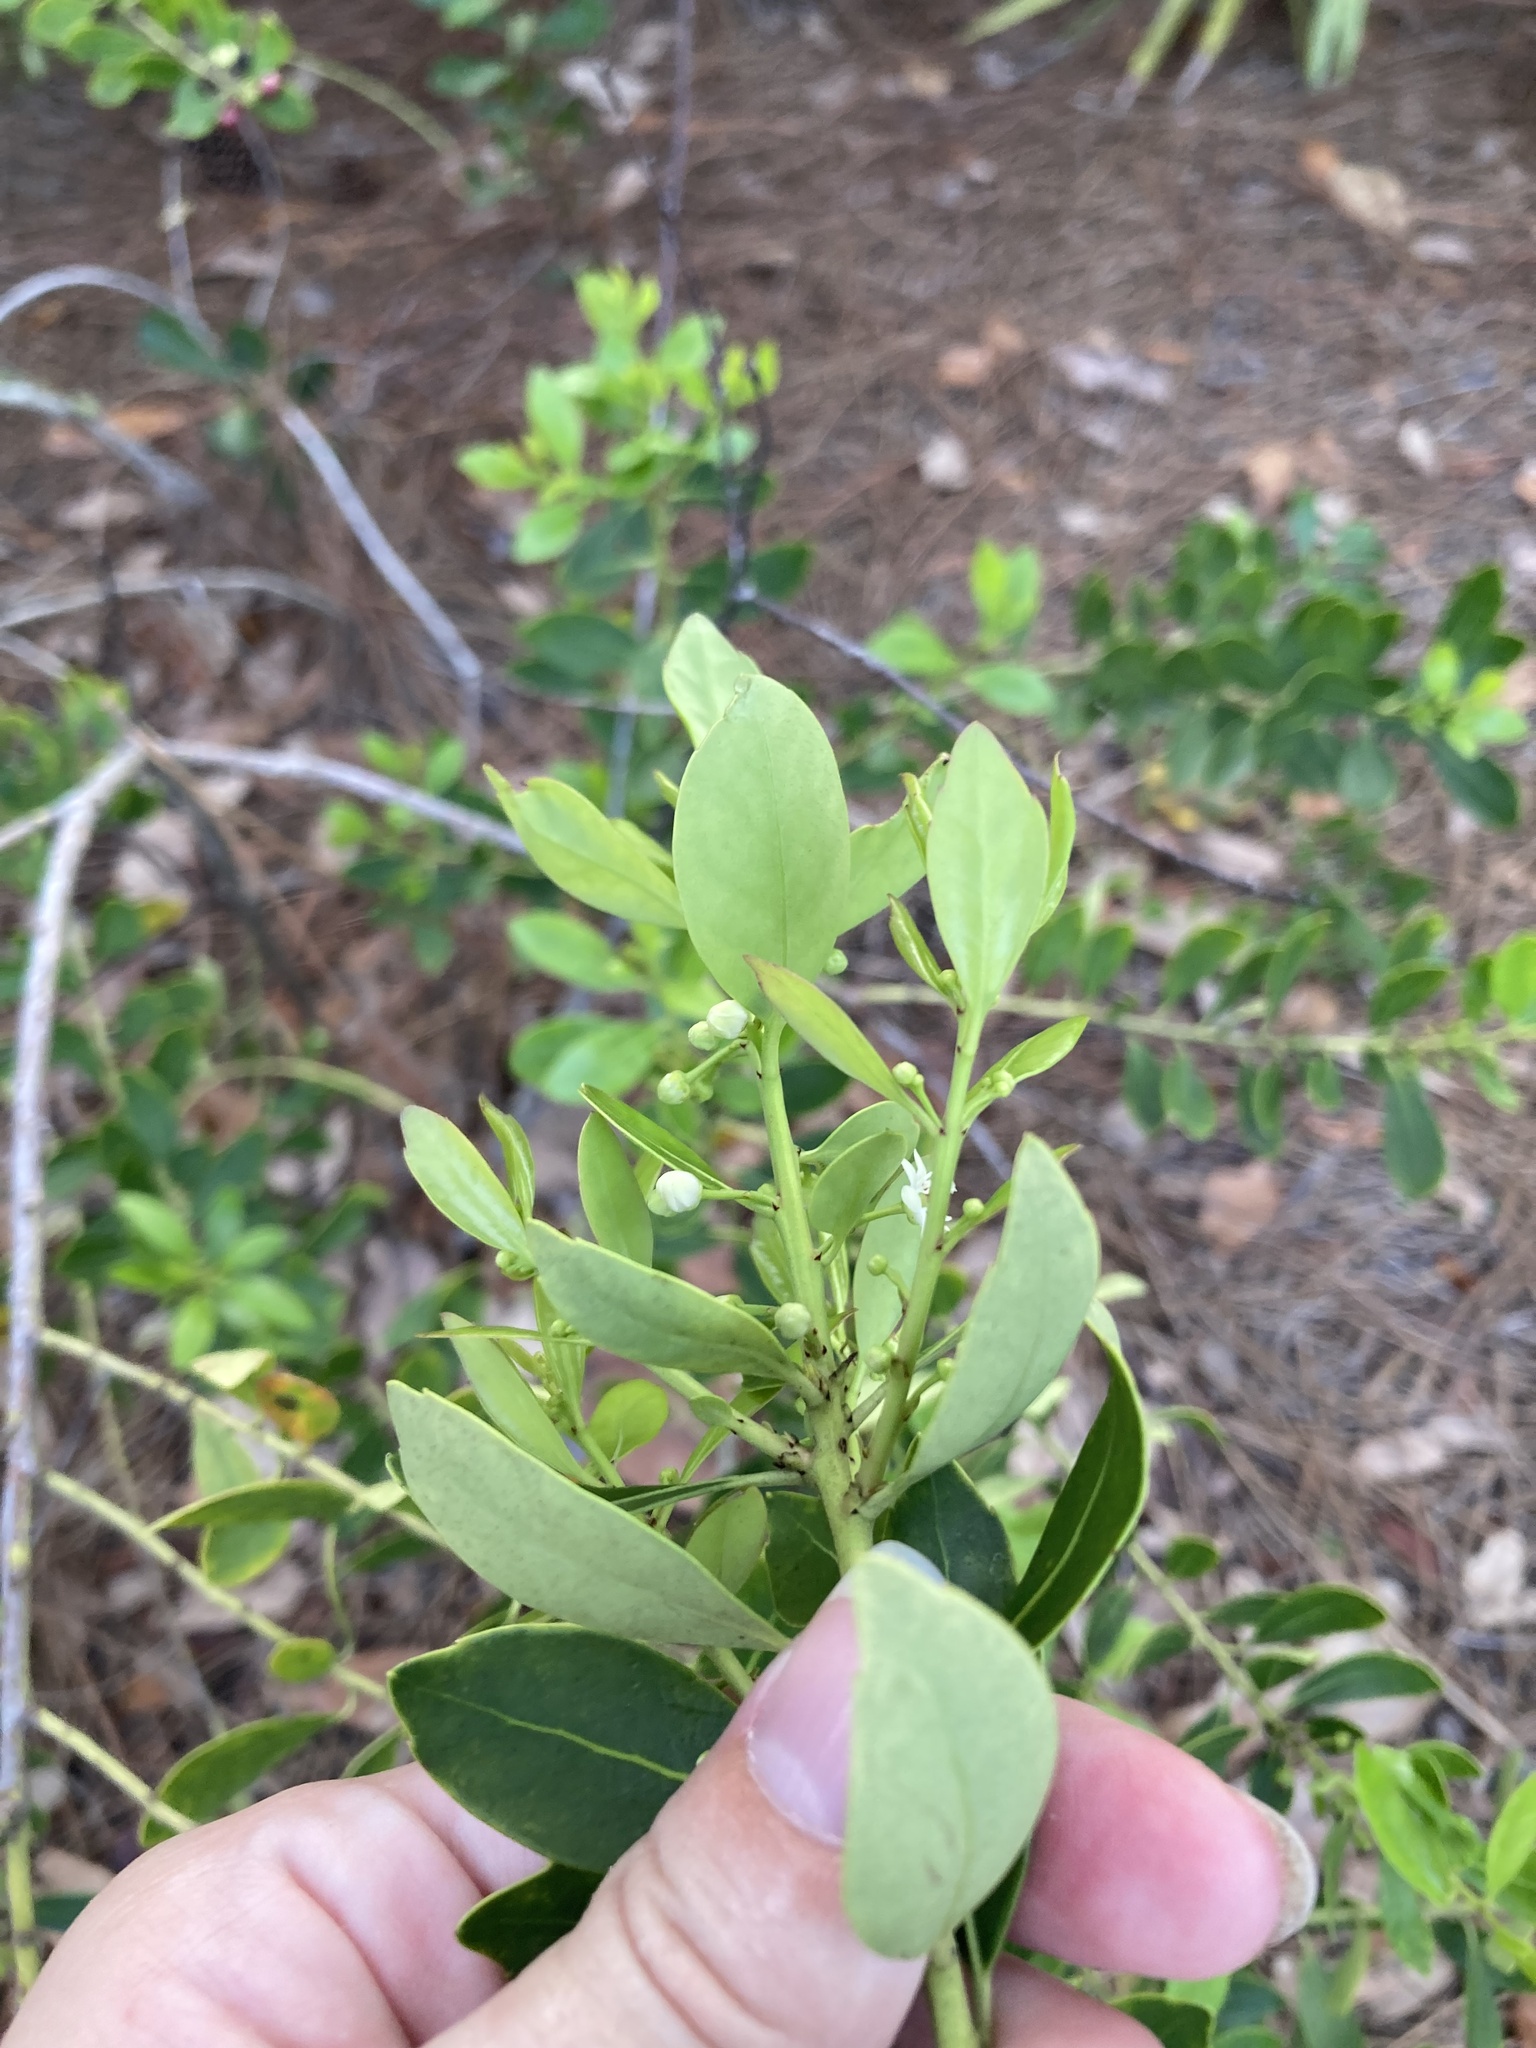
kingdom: Plantae
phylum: Tracheophyta
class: Magnoliopsida
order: Aquifoliales
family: Aquifoliaceae
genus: Ilex
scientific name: Ilex glabra
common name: Bitter gallberry
